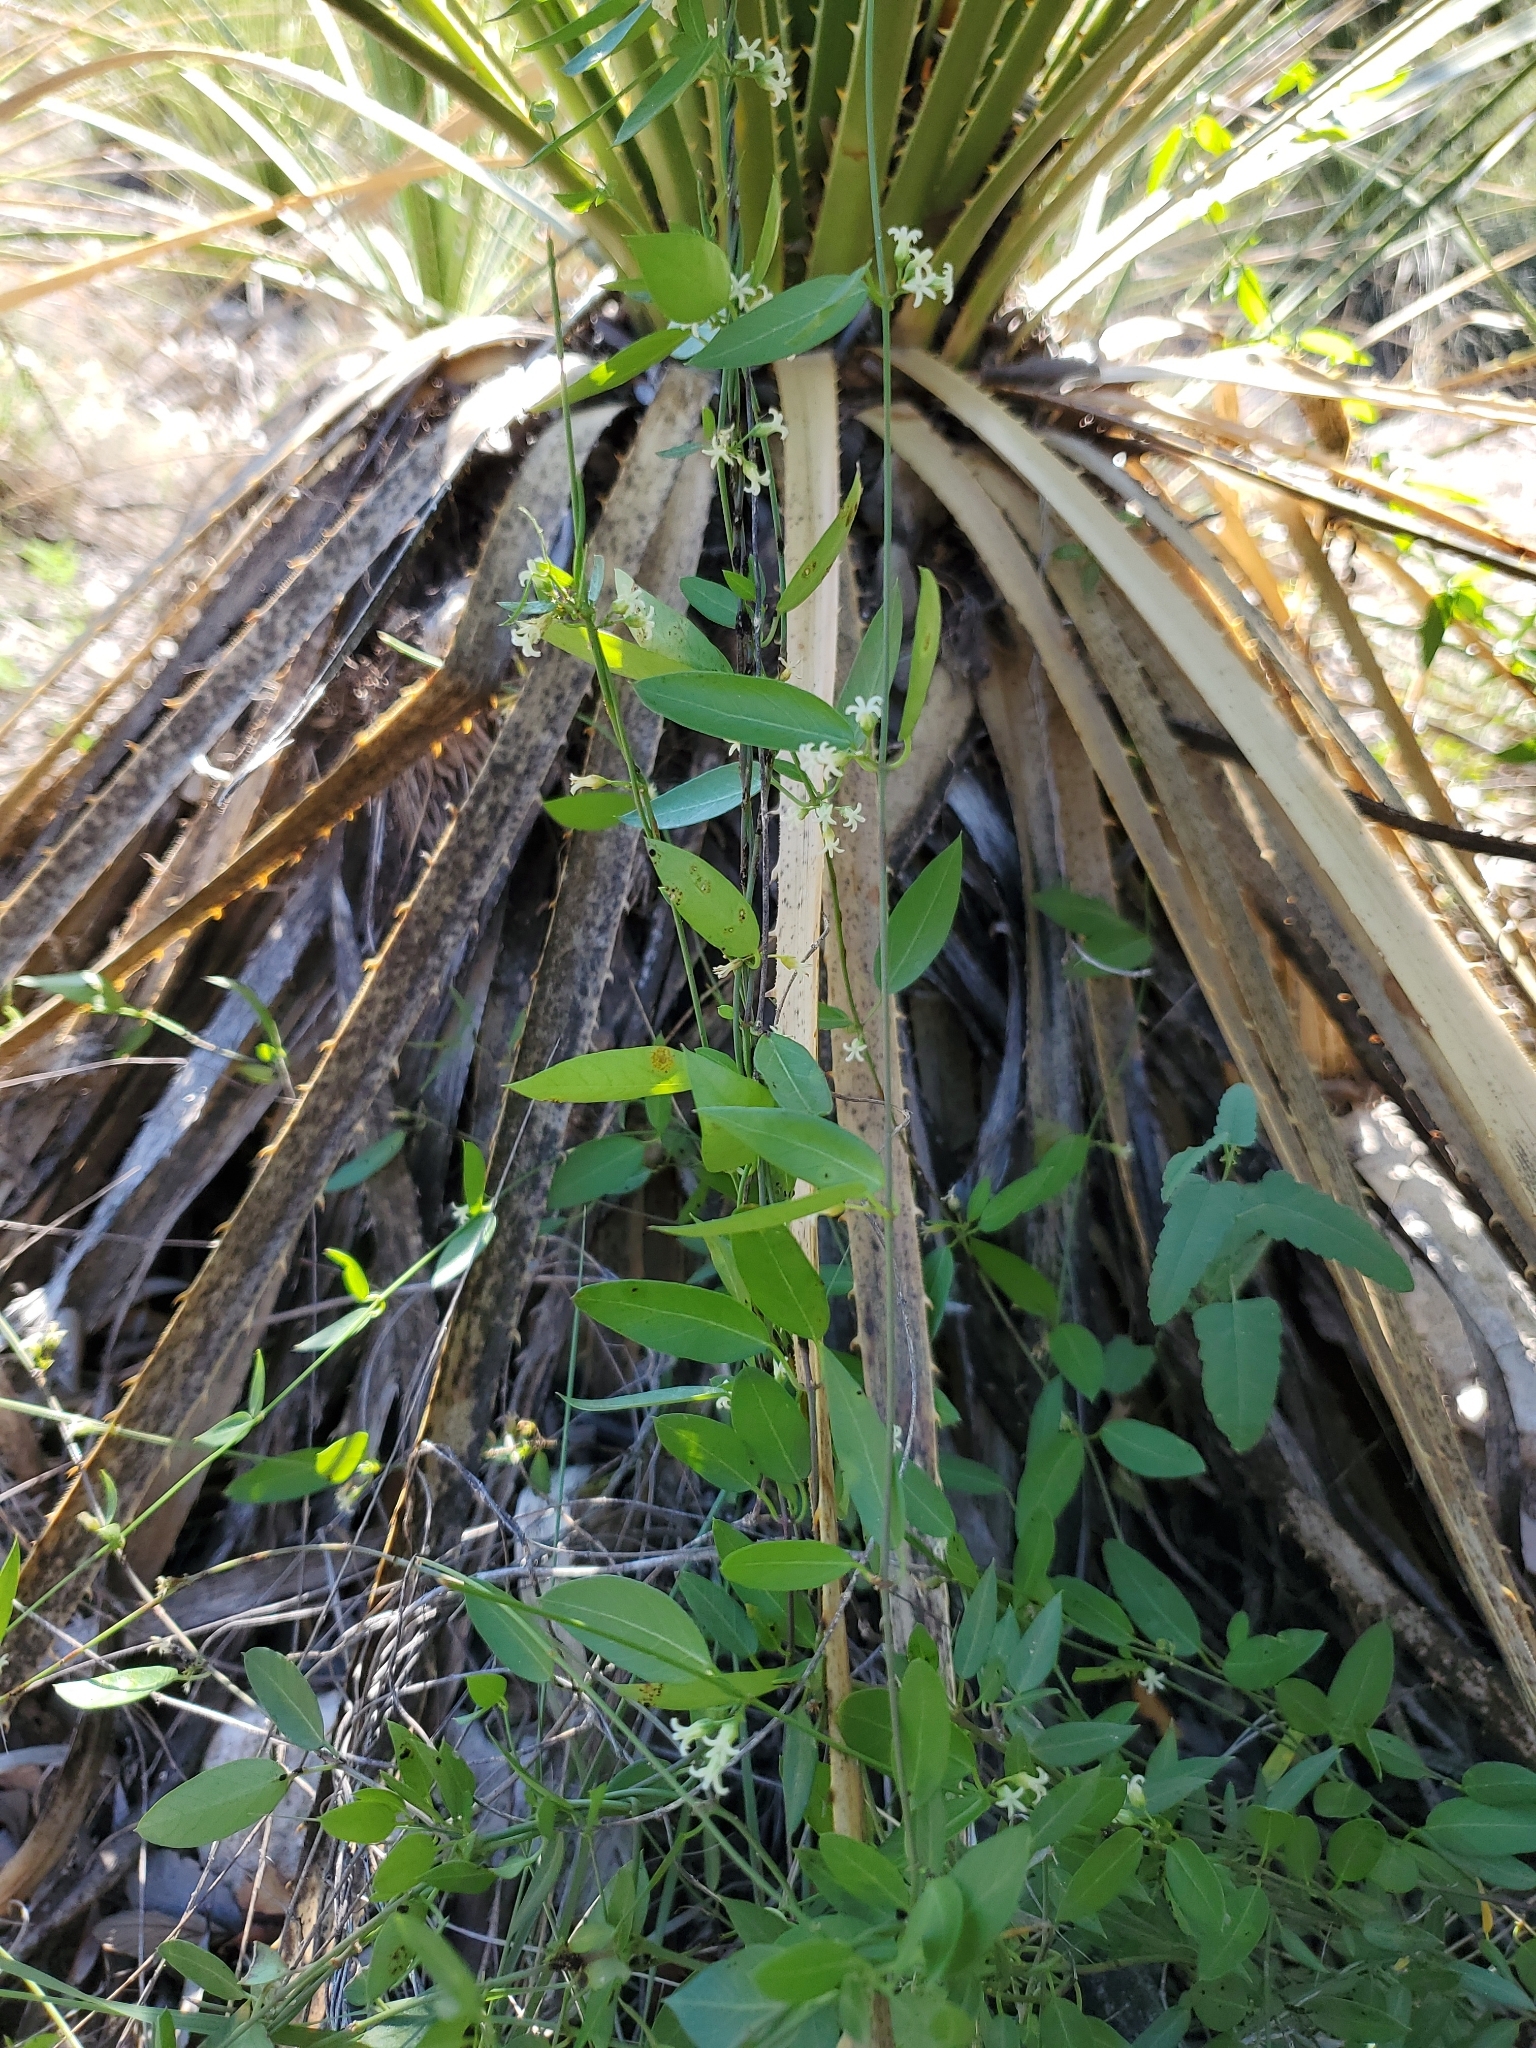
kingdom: Plantae
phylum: Tracheophyta
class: Magnoliopsida
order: Gentianales
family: Apocynaceae
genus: Metastelma
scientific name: Metastelma barbigerum
